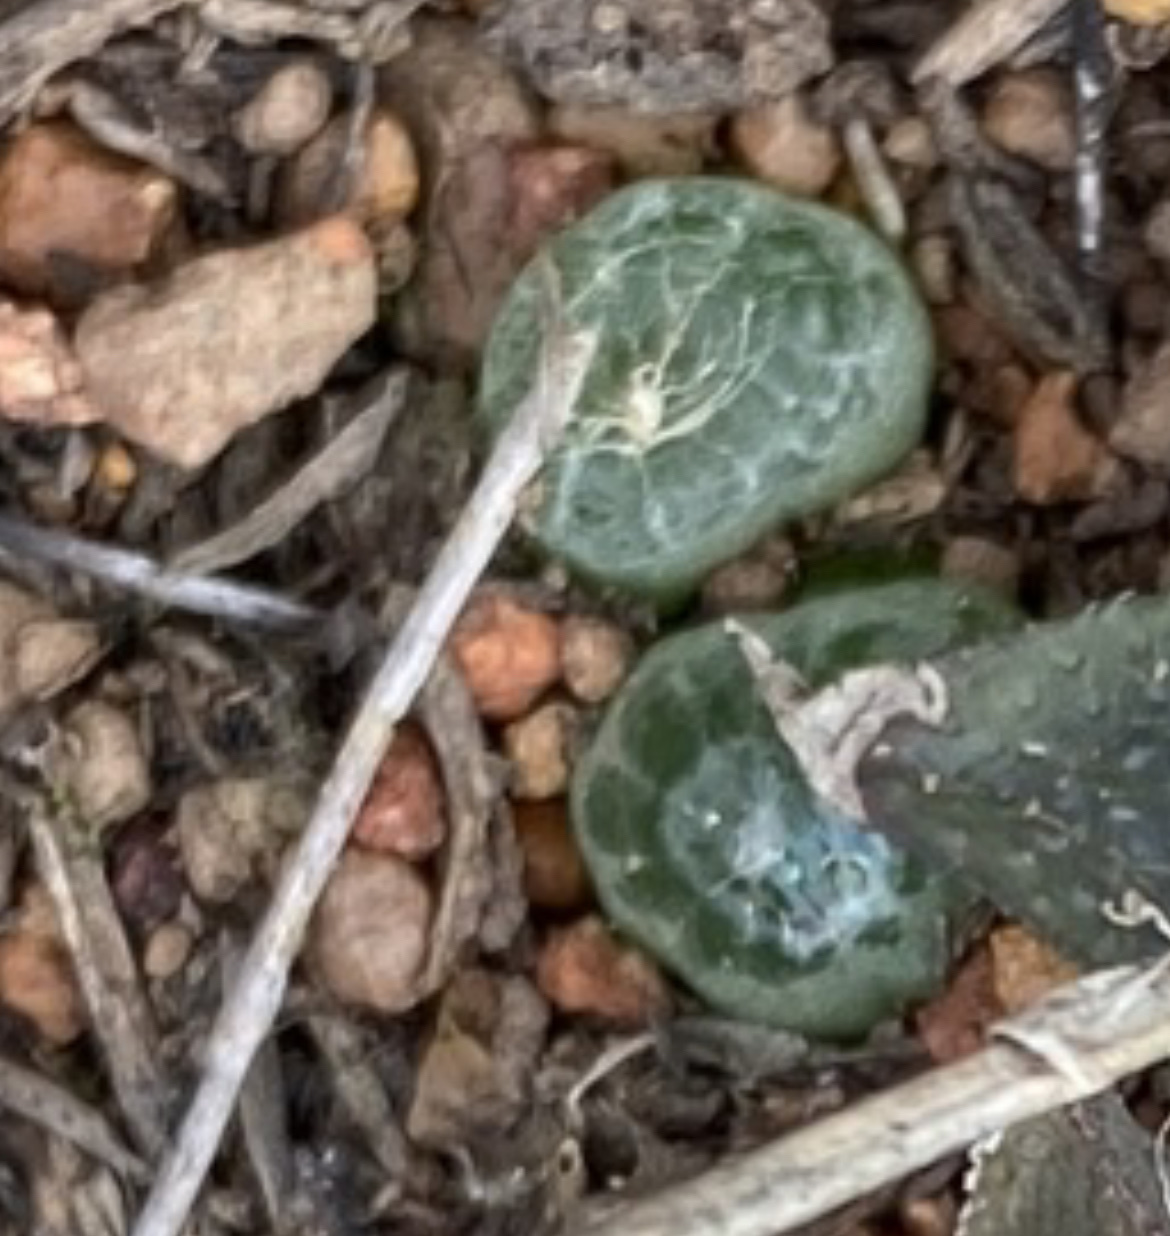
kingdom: Plantae
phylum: Tracheophyta
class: Liliopsida
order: Asparagales
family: Asphodelaceae
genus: Bulbine
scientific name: Bulbine mesembryanthoides
